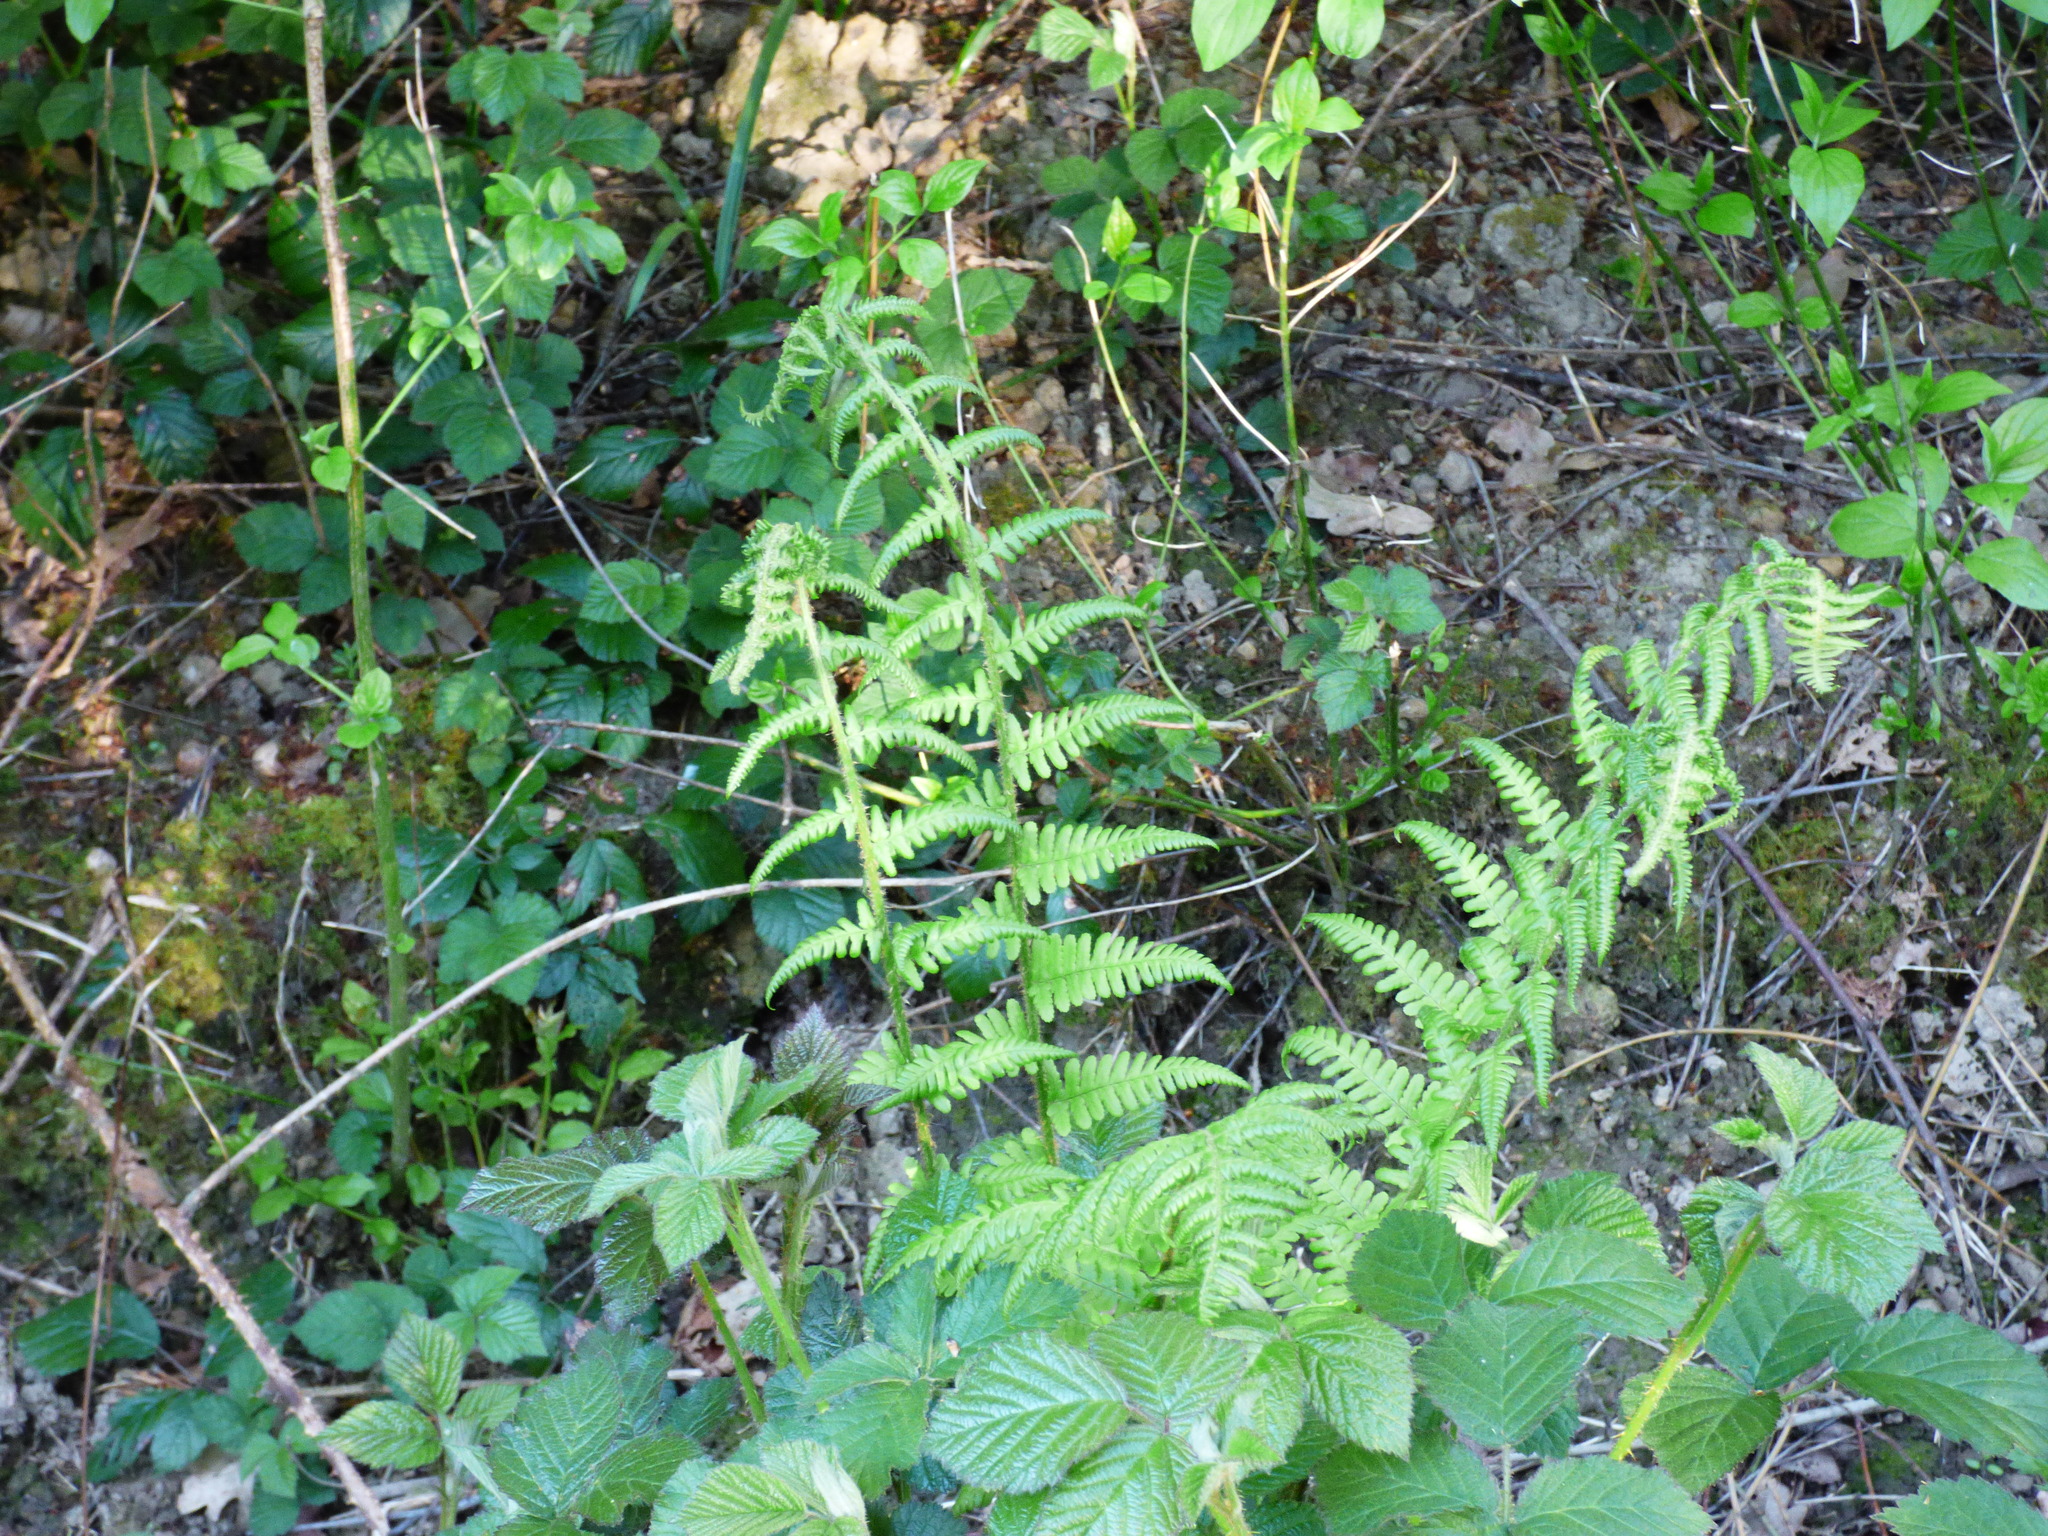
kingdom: Plantae
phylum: Tracheophyta
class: Polypodiopsida
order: Polypodiales
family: Dennstaedtiaceae
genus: Pteridium
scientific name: Pteridium aquilinum
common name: Bracken
